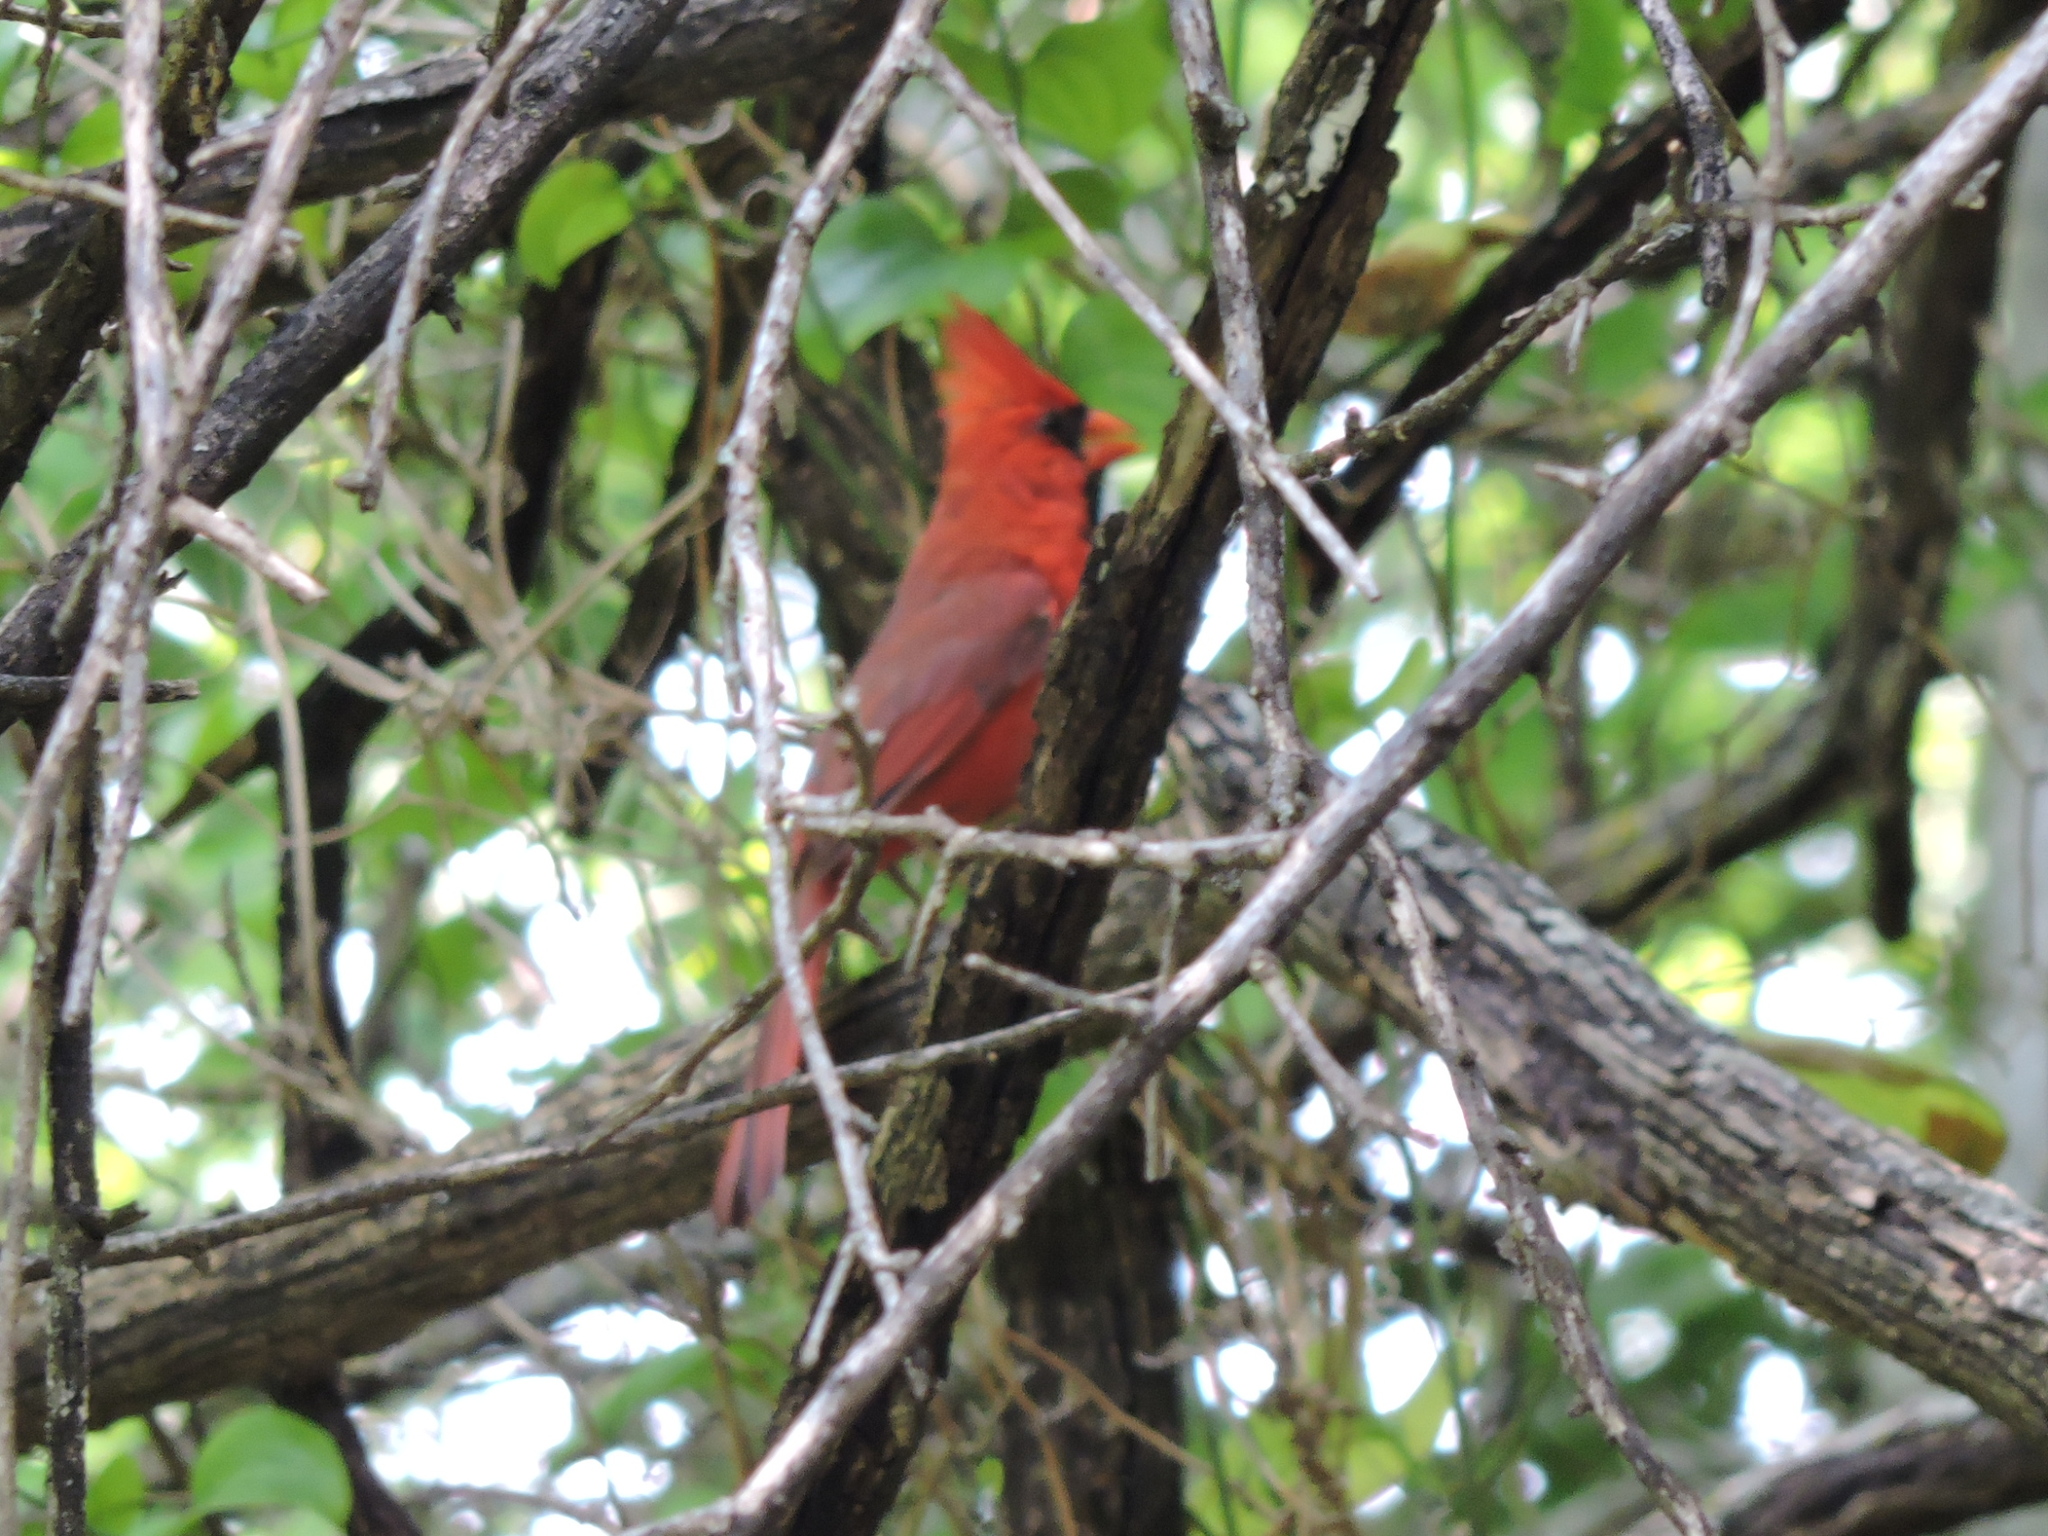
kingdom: Animalia
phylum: Chordata
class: Aves
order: Passeriformes
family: Cardinalidae
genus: Cardinalis
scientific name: Cardinalis cardinalis
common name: Northern cardinal
